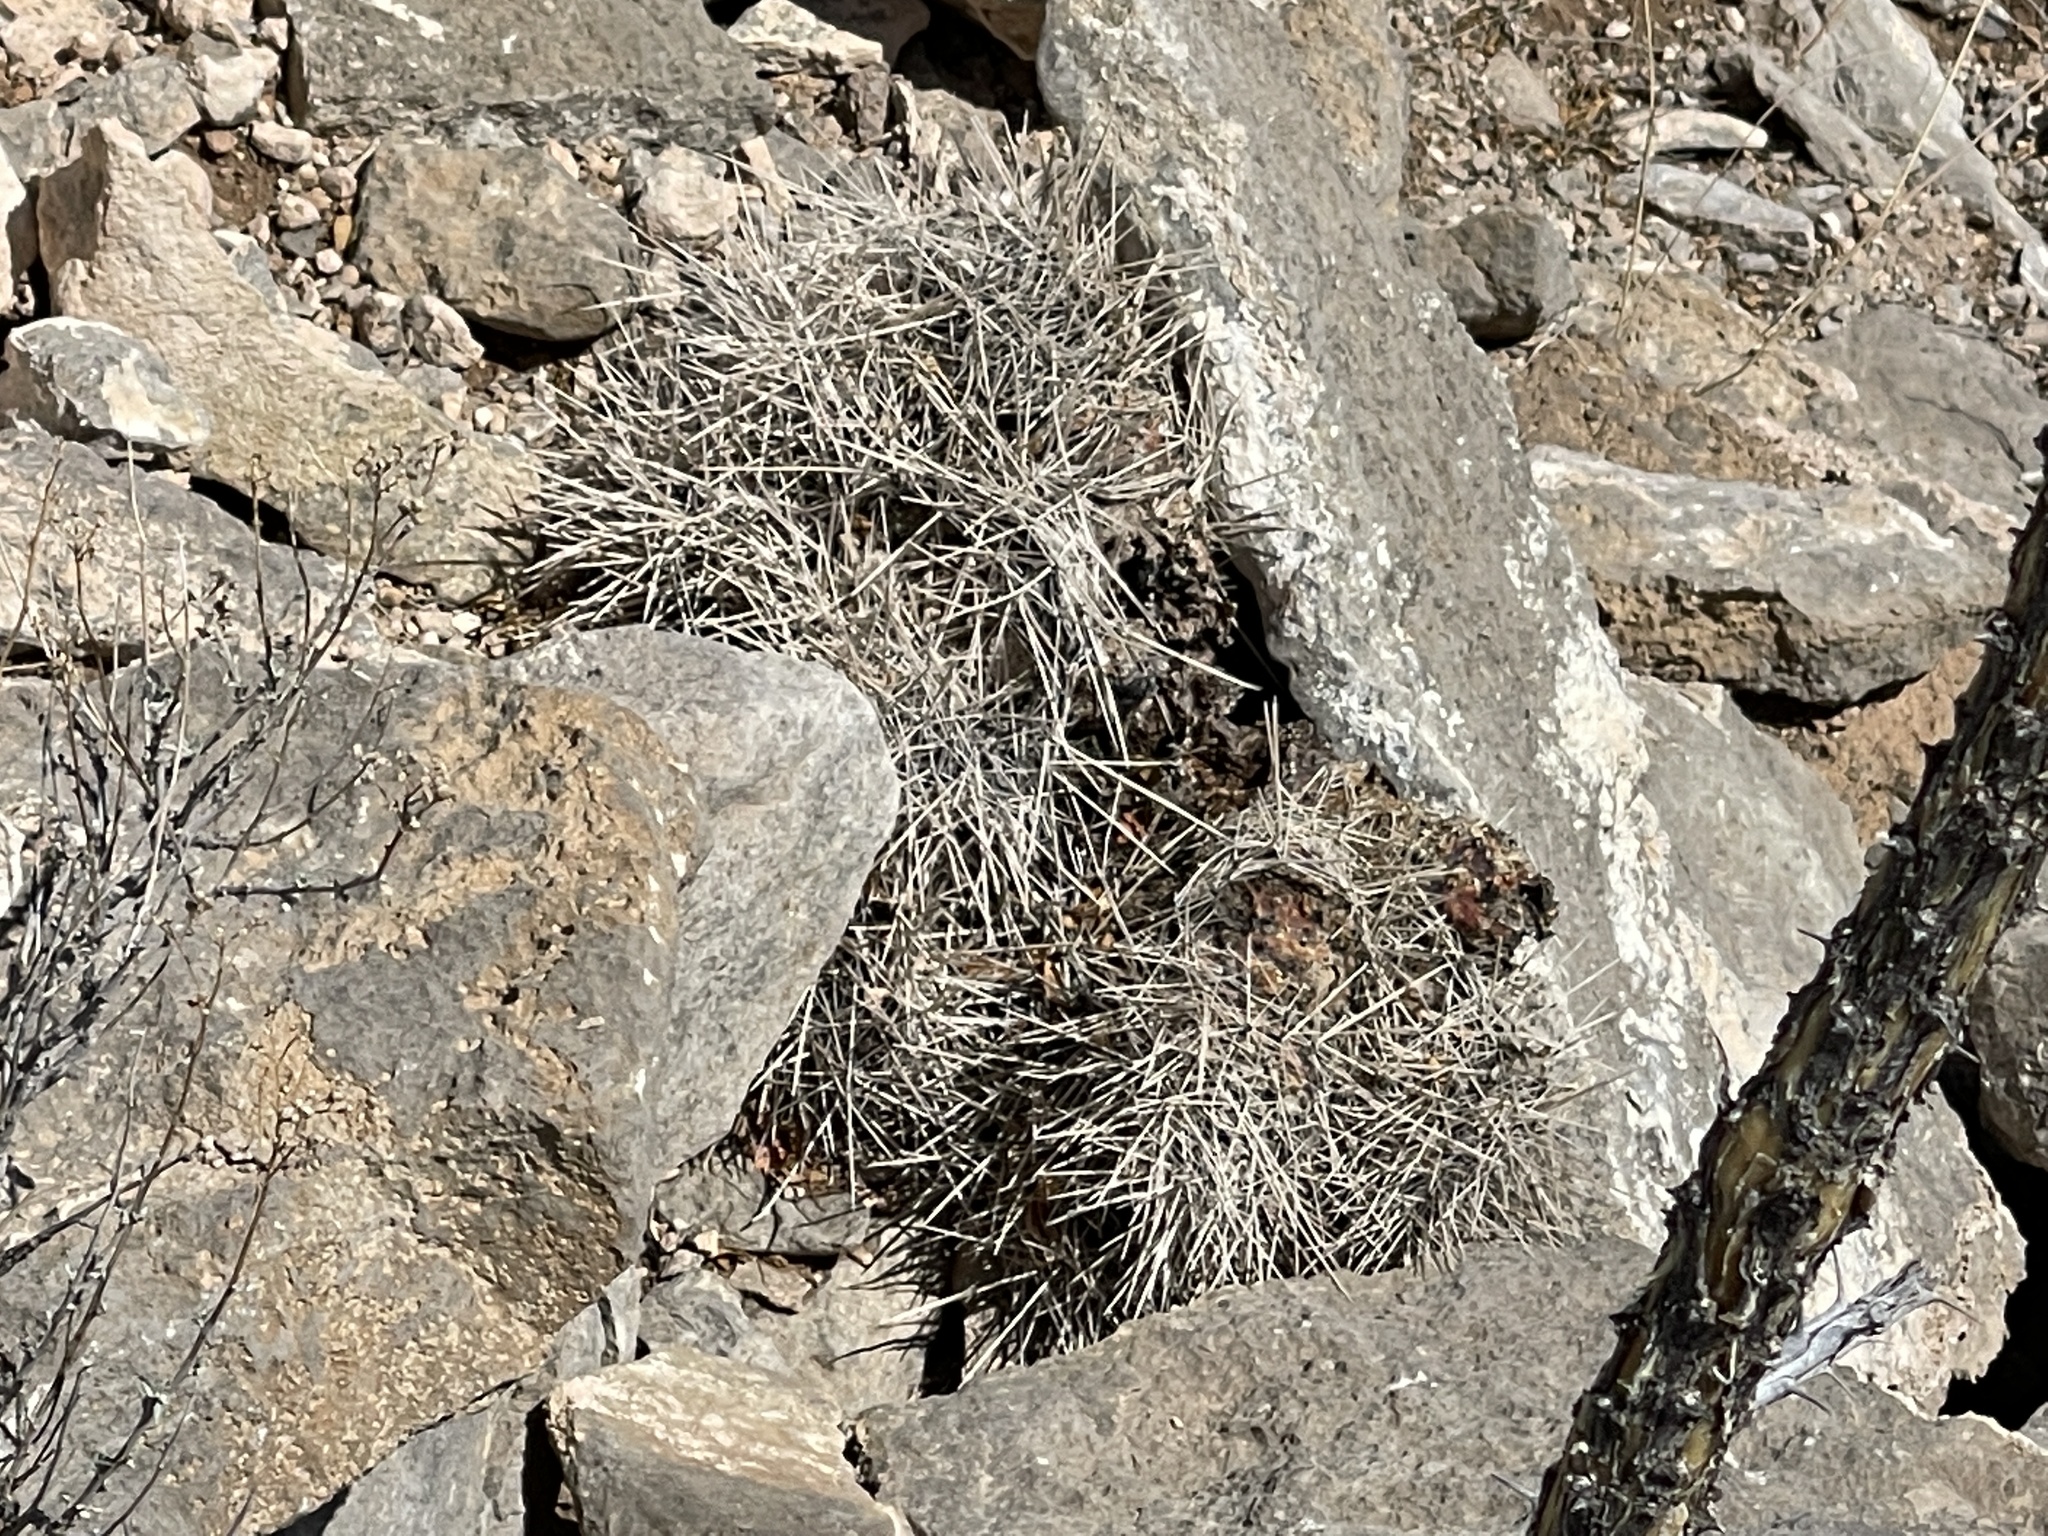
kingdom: Plantae
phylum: Tracheophyta
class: Magnoliopsida
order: Caryophyllales
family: Cactaceae
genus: Echinocereus
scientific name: Echinocereus stramineus
